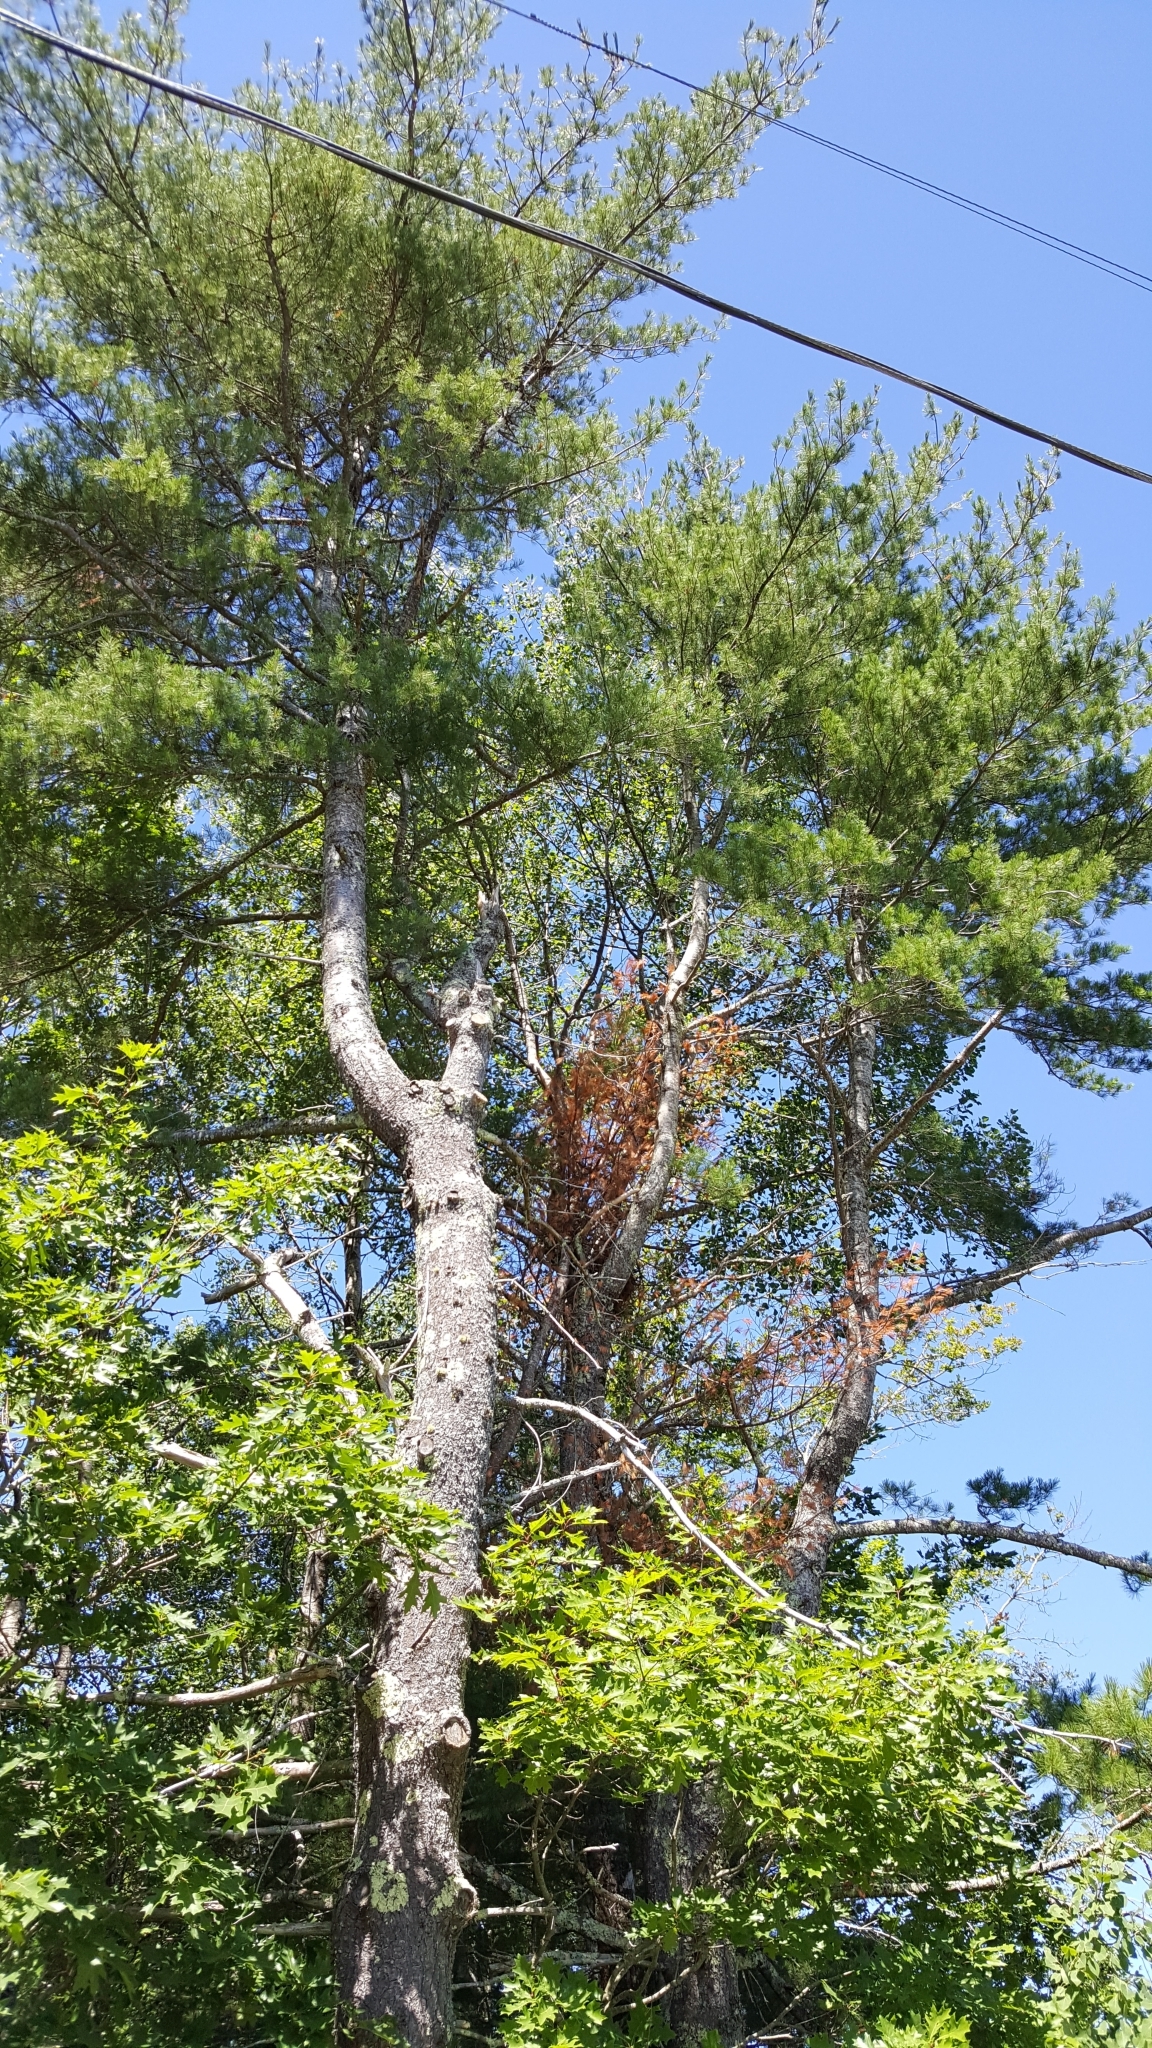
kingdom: Plantae
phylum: Tracheophyta
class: Pinopsida
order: Pinales
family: Pinaceae
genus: Pinus
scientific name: Pinus strobus
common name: Weymouth pine
